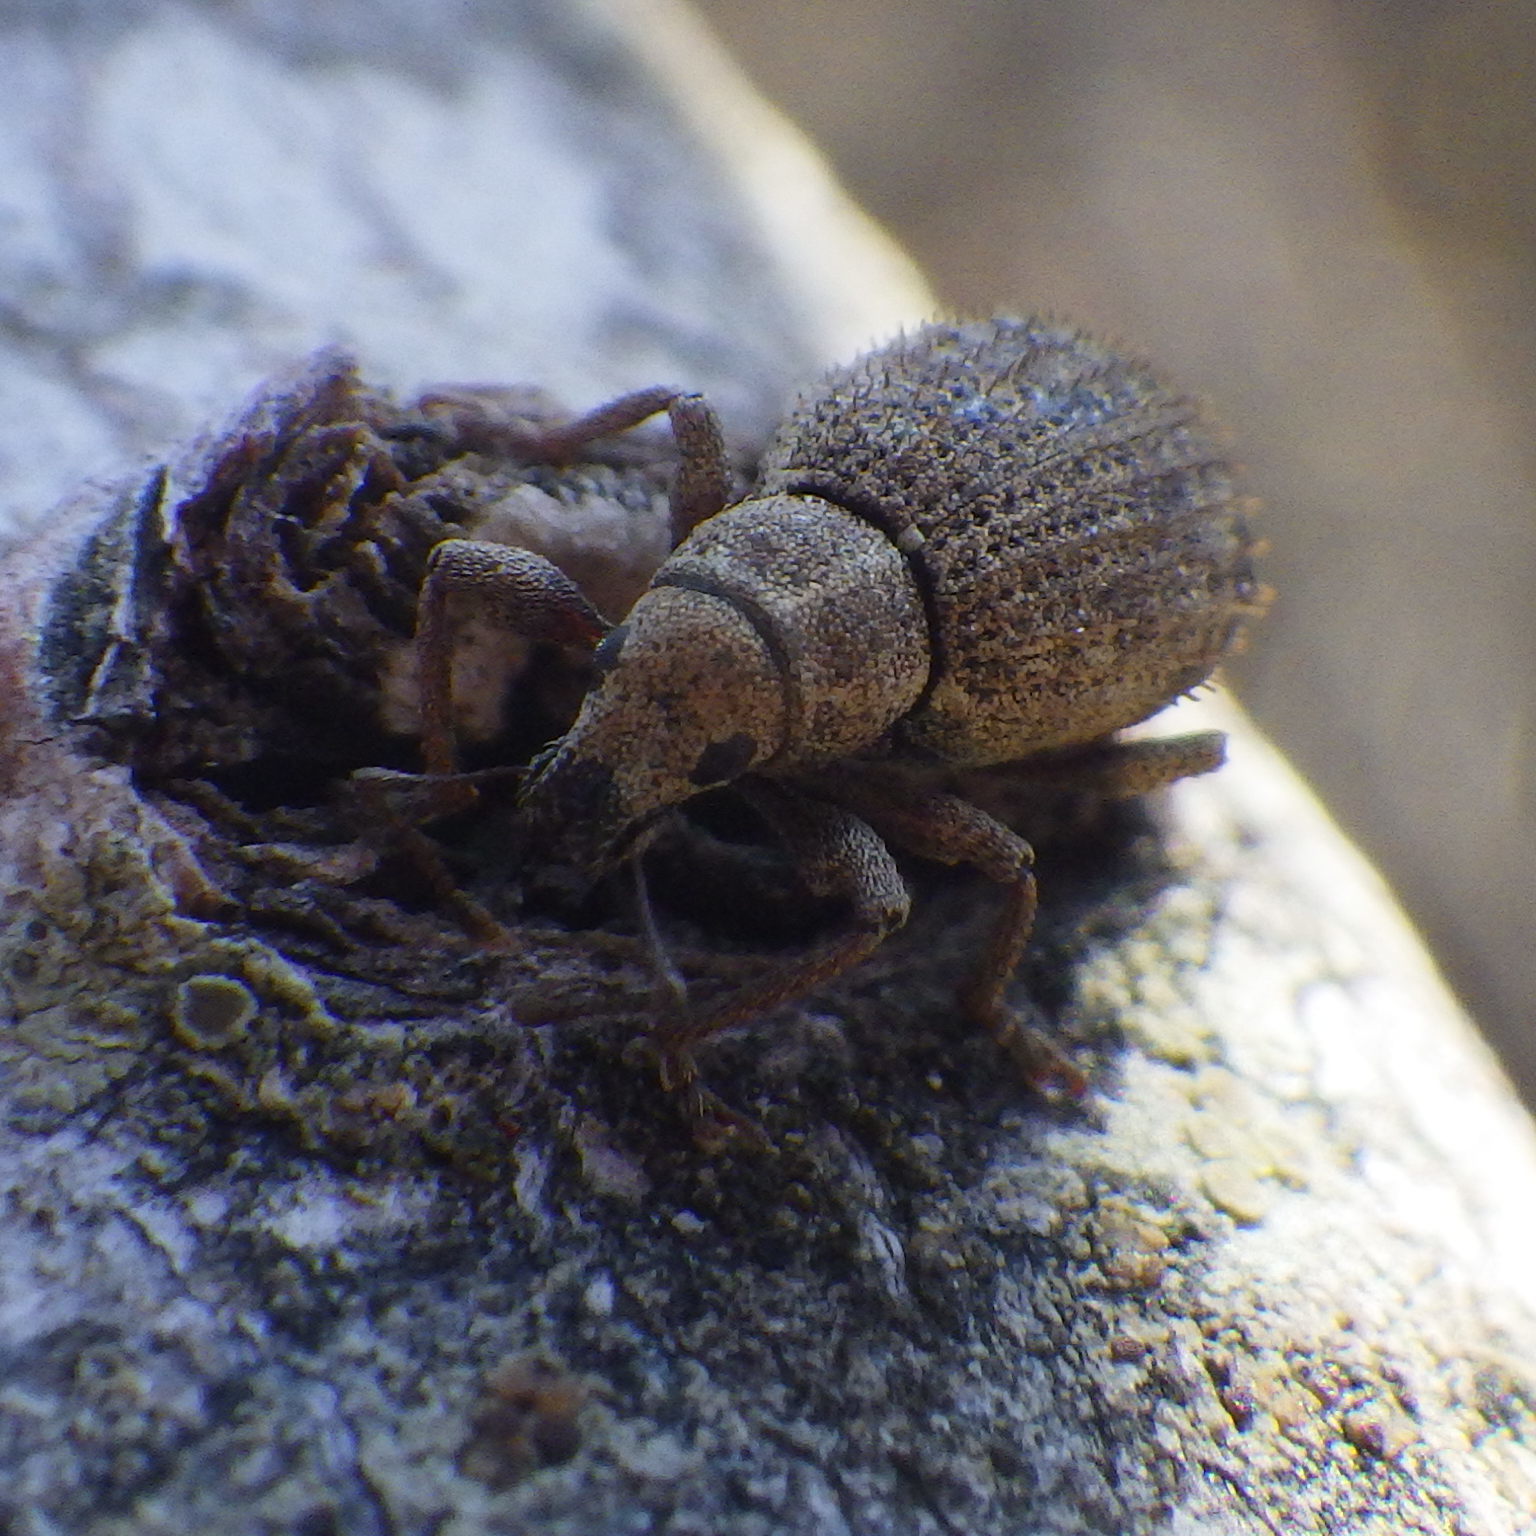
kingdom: Animalia
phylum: Arthropoda
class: Insecta
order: Coleoptera
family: Curculionidae
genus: Sciaphilus
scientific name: Sciaphilus asperatus
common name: Weevil
